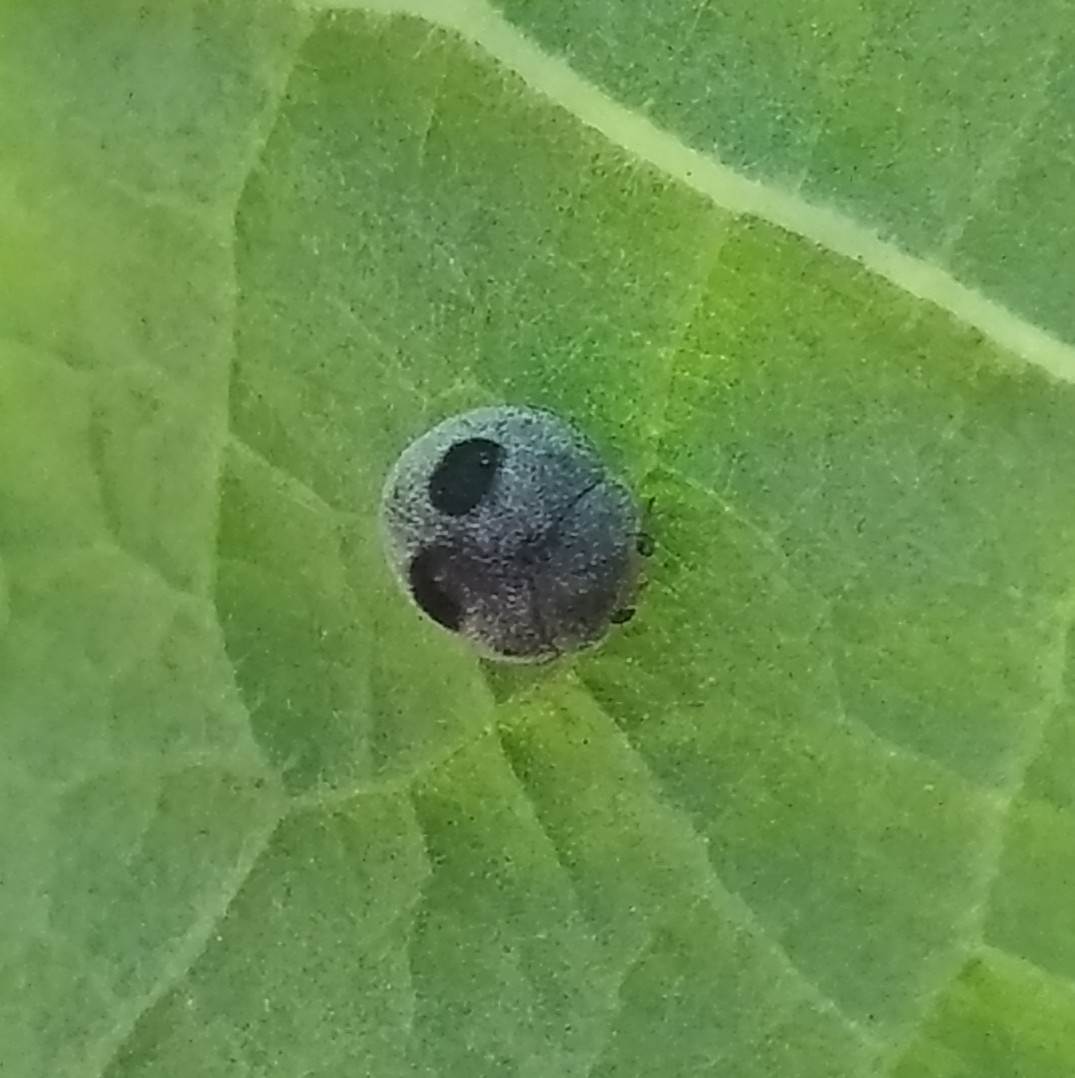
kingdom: Animalia
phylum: Arthropoda
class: Insecta
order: Coleoptera
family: Coccinellidae
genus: Azya
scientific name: Azya luteipes
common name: Ladybird beetle
